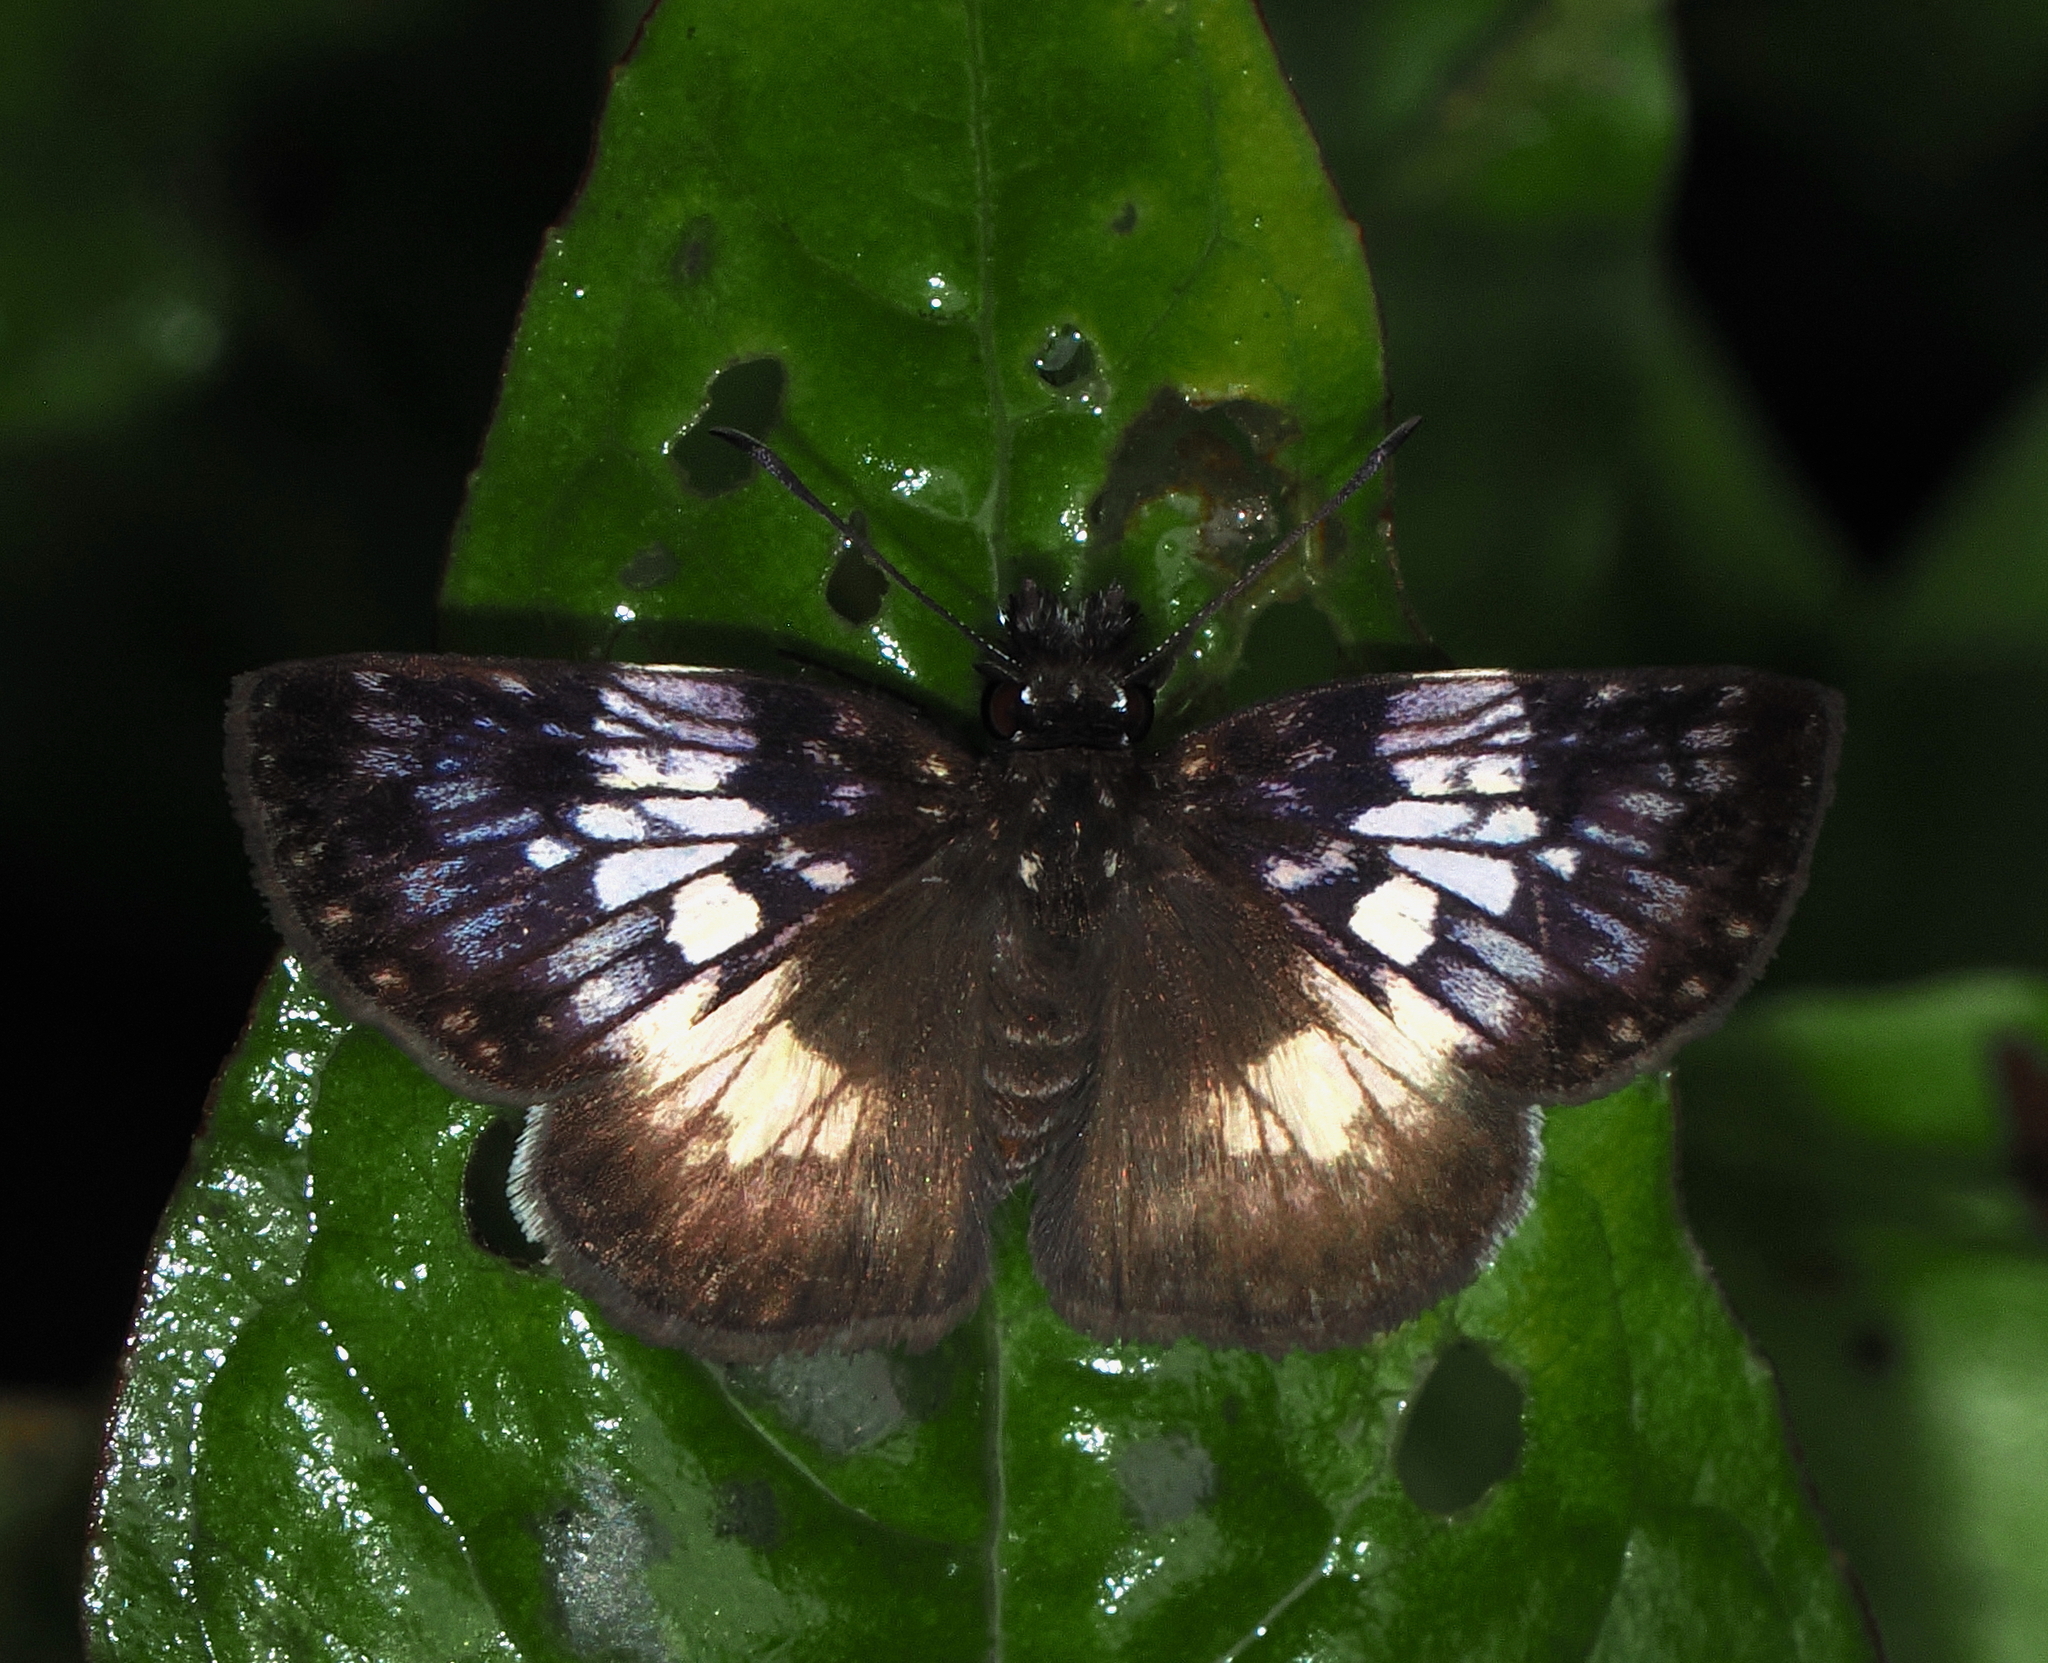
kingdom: Animalia
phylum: Arthropoda
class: Insecta
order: Lepidoptera
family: Hesperiidae
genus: Potamanaxas
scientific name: Potamanaxas
